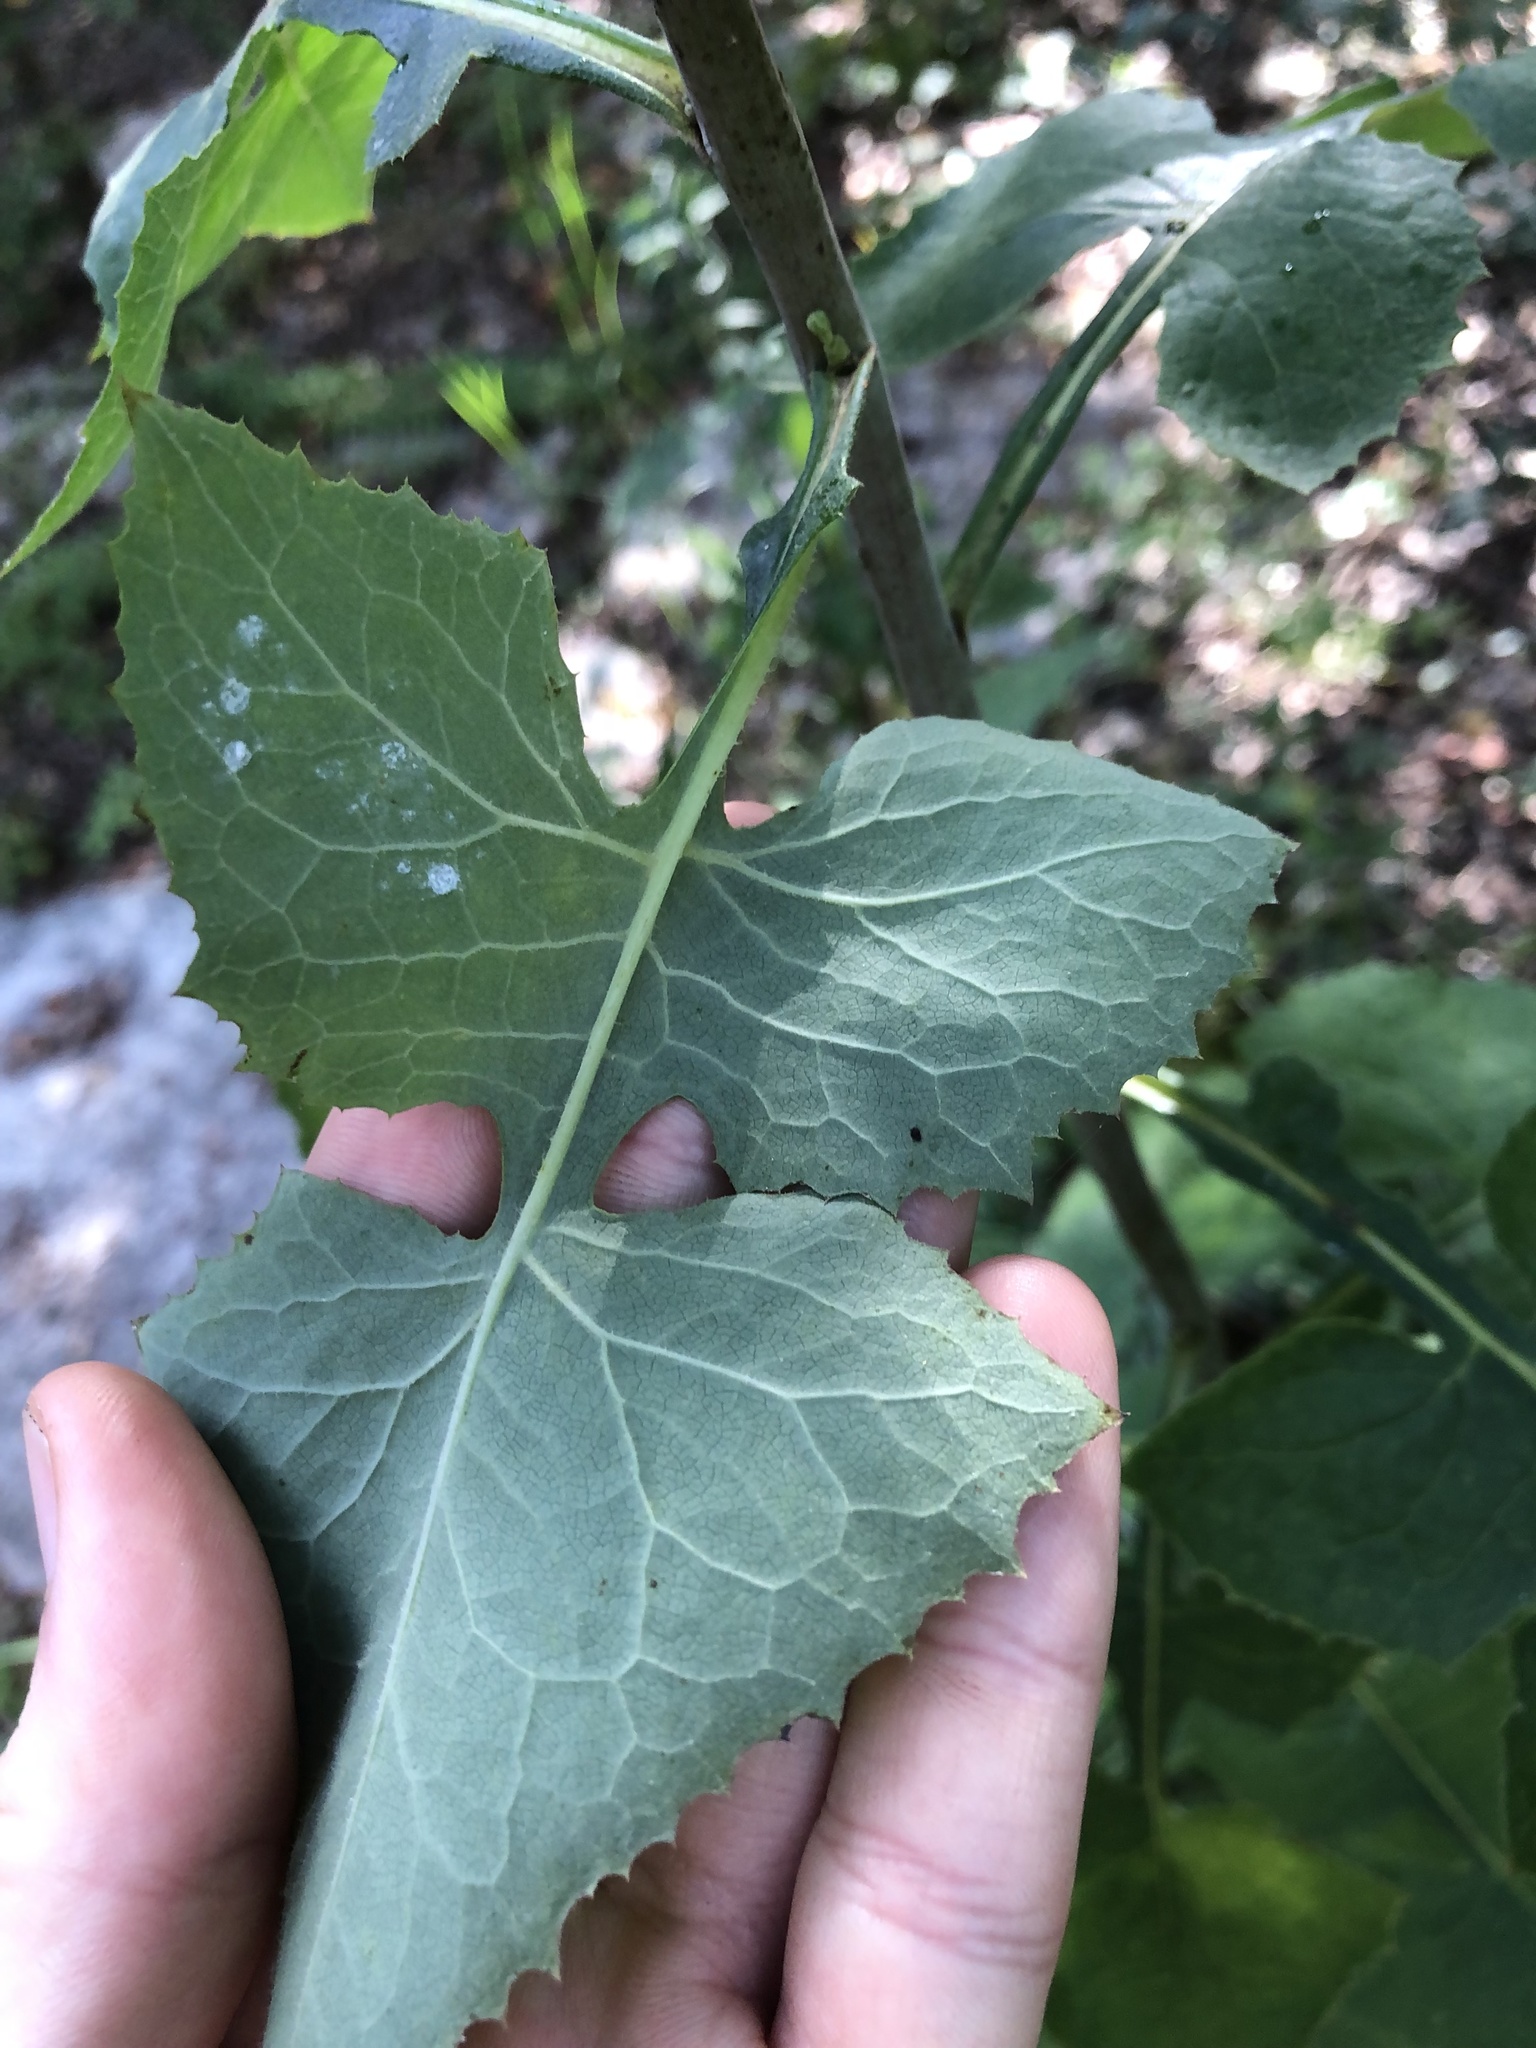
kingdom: Plantae
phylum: Tracheophyta
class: Magnoliopsida
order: Asterales
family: Asteraceae
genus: Lactuca
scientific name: Lactuca floridana
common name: Woodland lettuce
